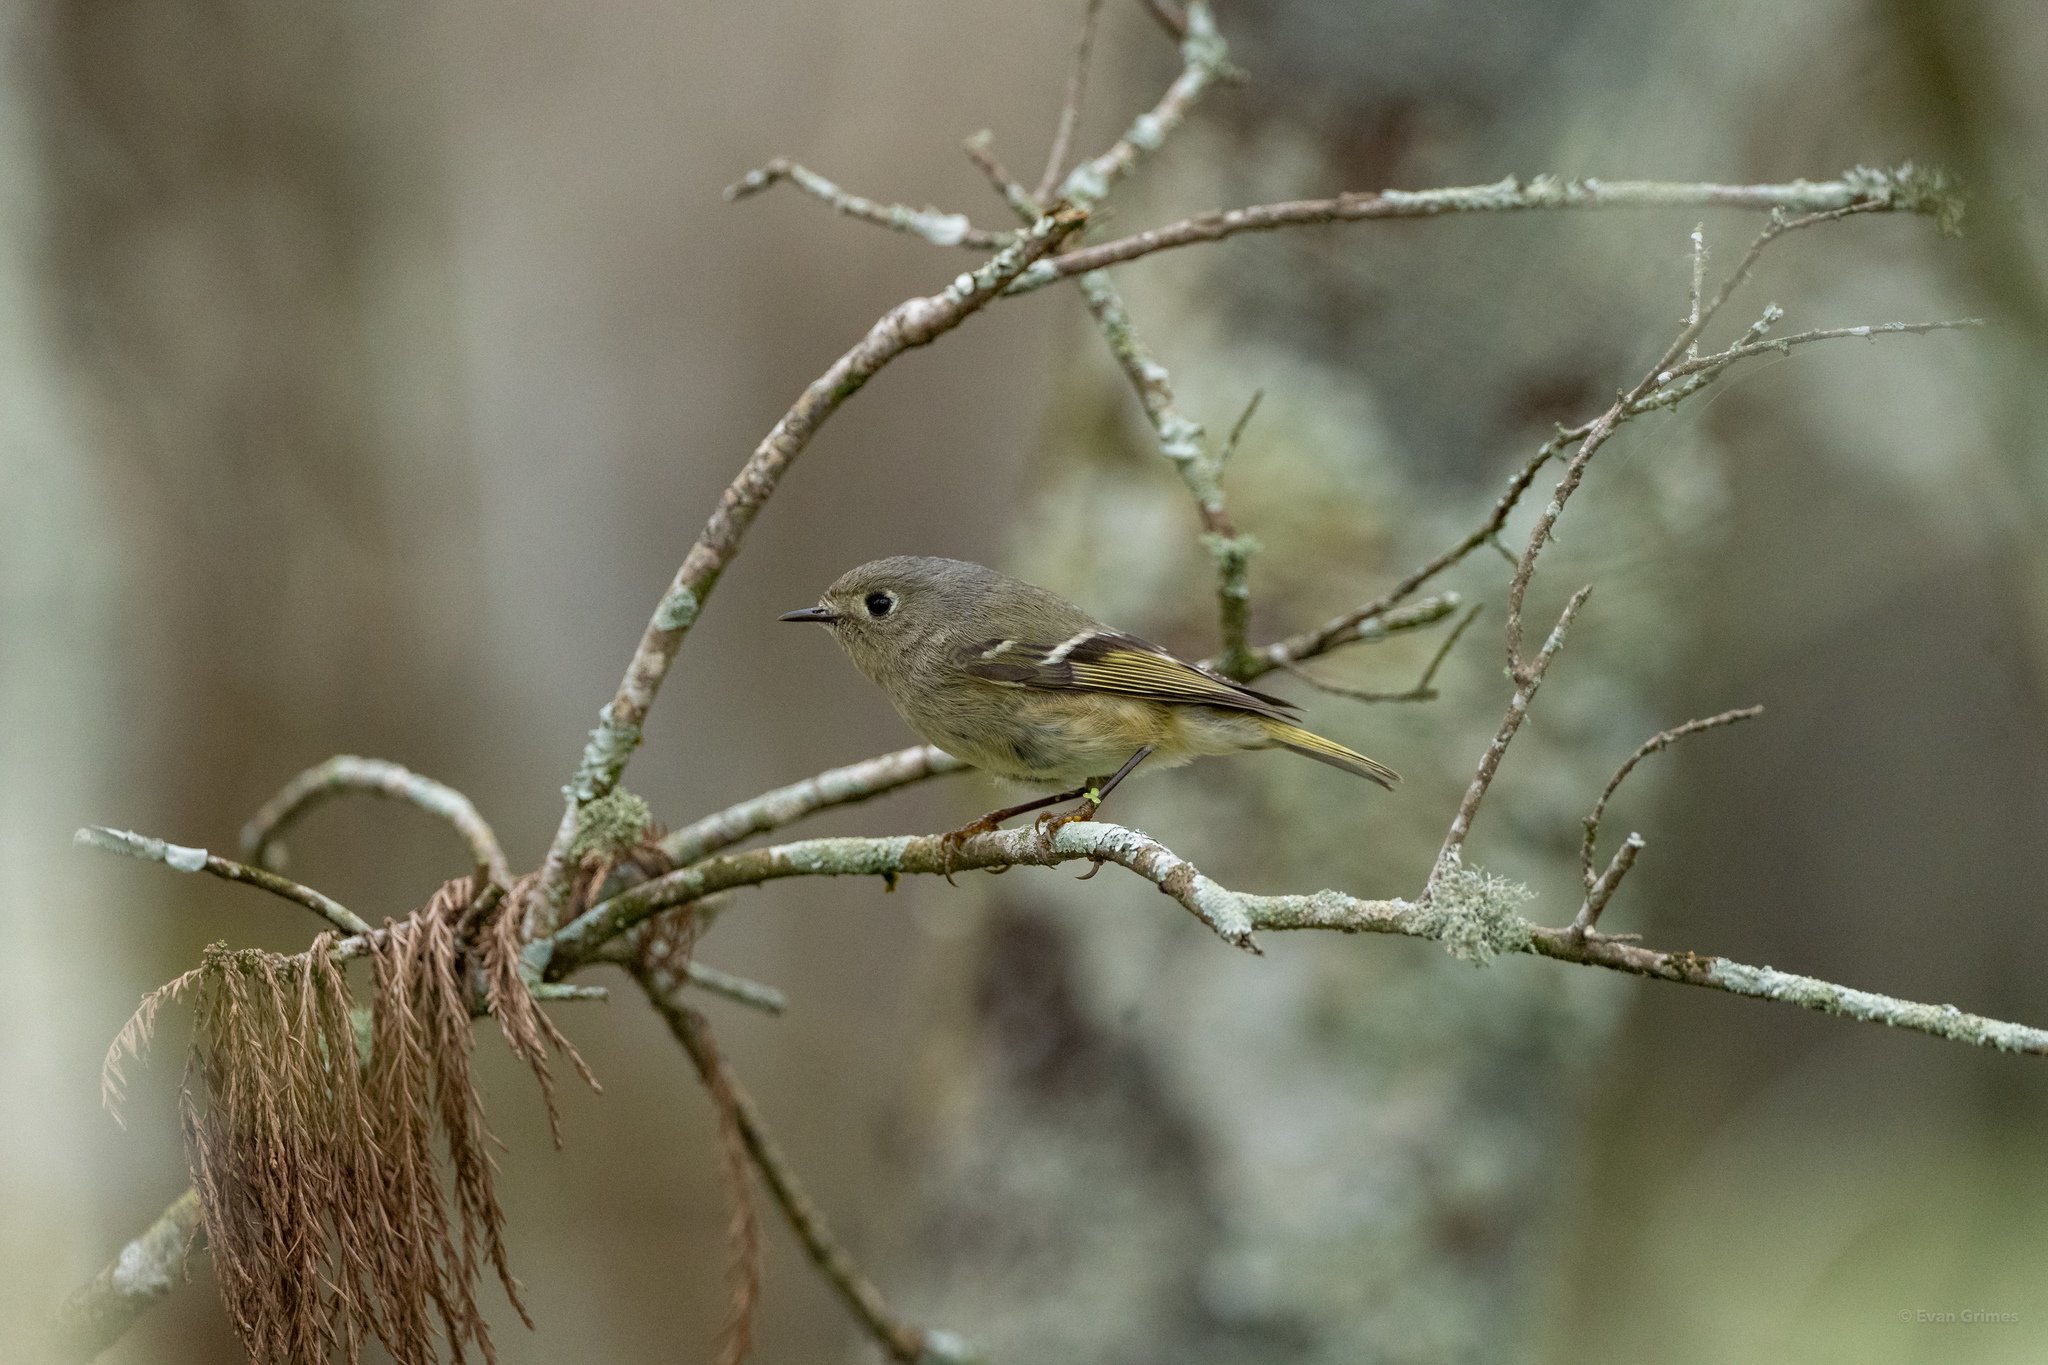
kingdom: Animalia
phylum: Chordata
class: Aves
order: Passeriformes
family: Regulidae
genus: Regulus
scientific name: Regulus calendula
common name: Ruby-crowned kinglet
